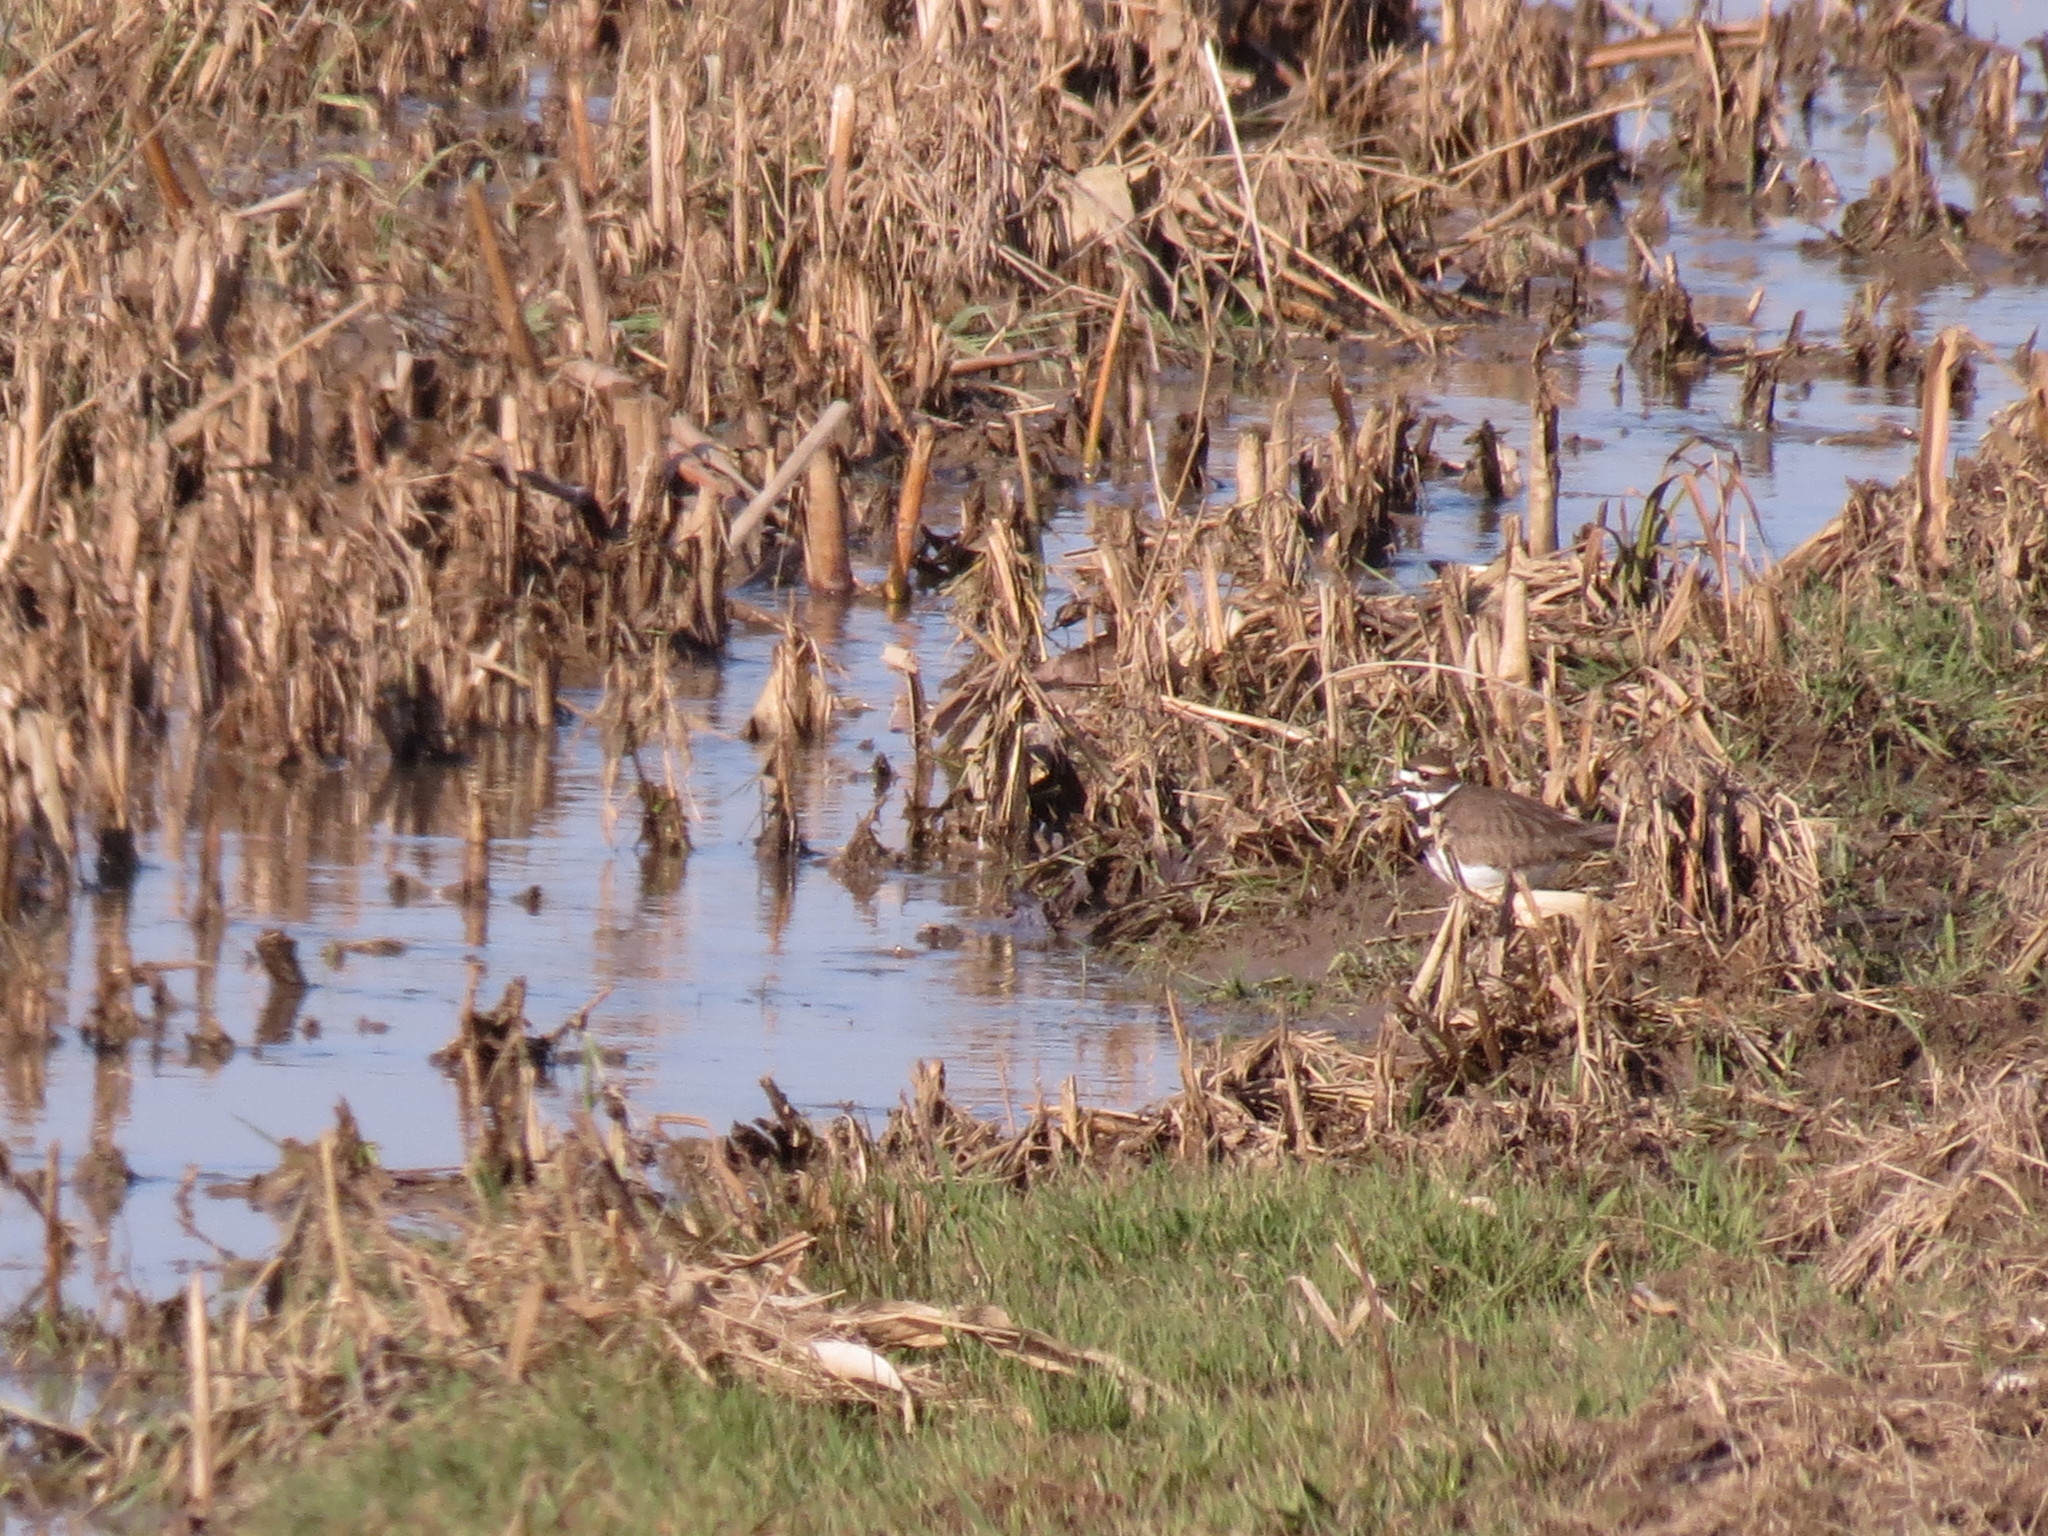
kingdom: Animalia
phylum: Chordata
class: Aves
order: Charadriiformes
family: Charadriidae
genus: Charadrius
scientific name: Charadrius vociferus
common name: Killdeer
